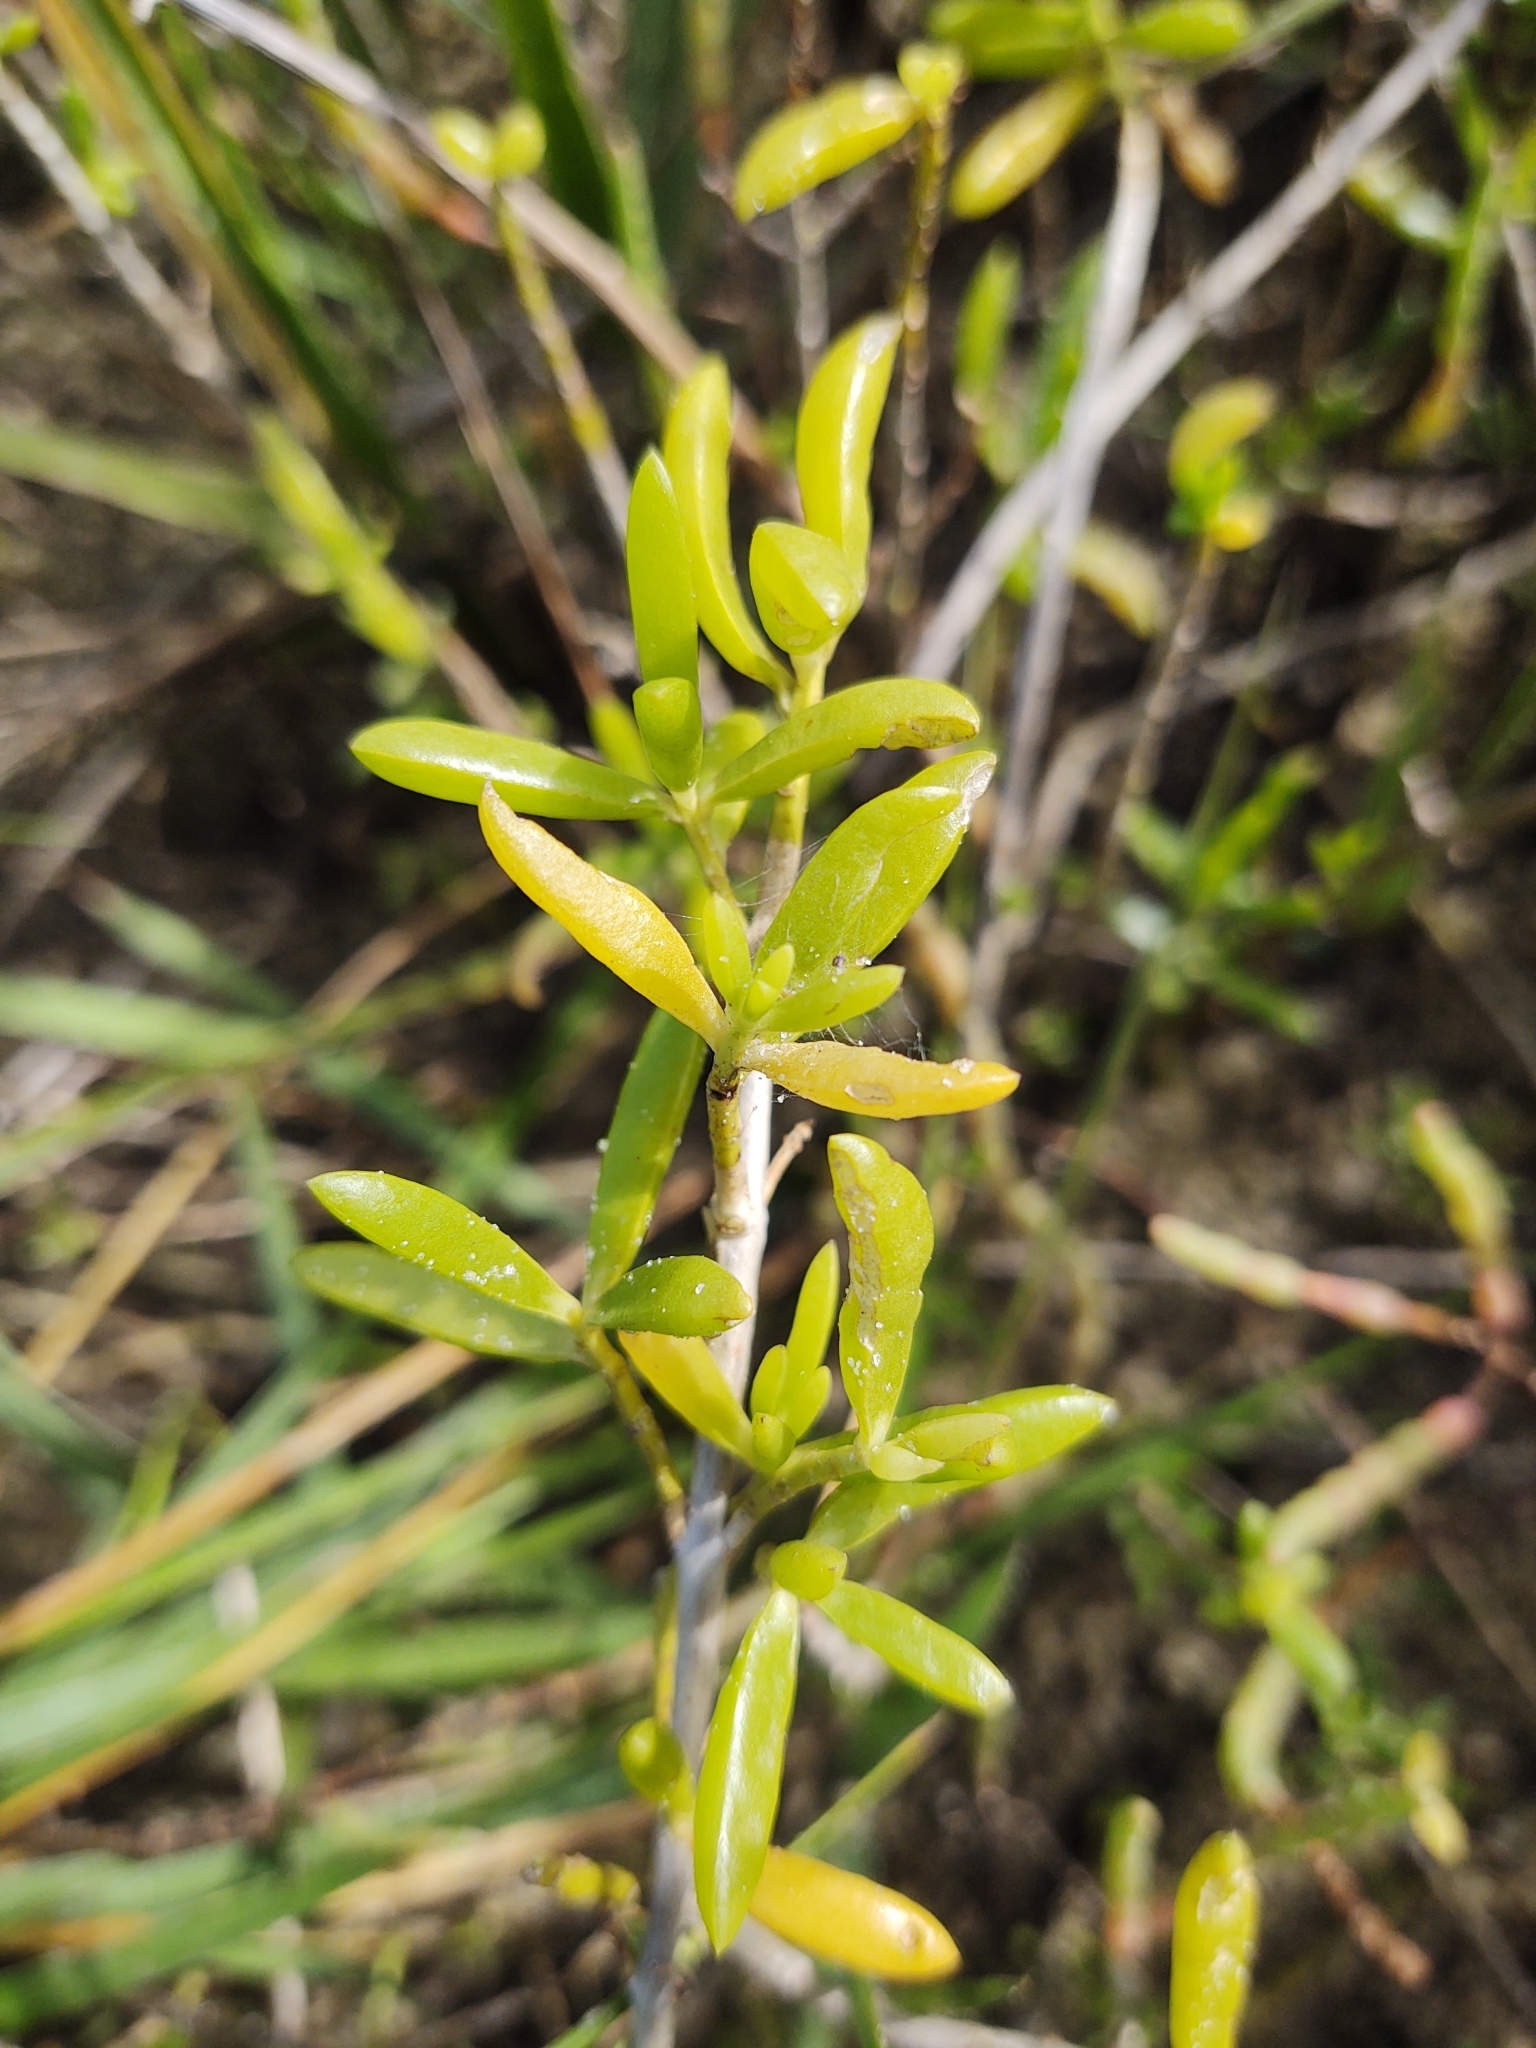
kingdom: Plantae
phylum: Tracheophyta
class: Magnoliopsida
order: Brassicales
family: Bataceae
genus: Batis
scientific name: Batis maritima
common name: Turtleweed
